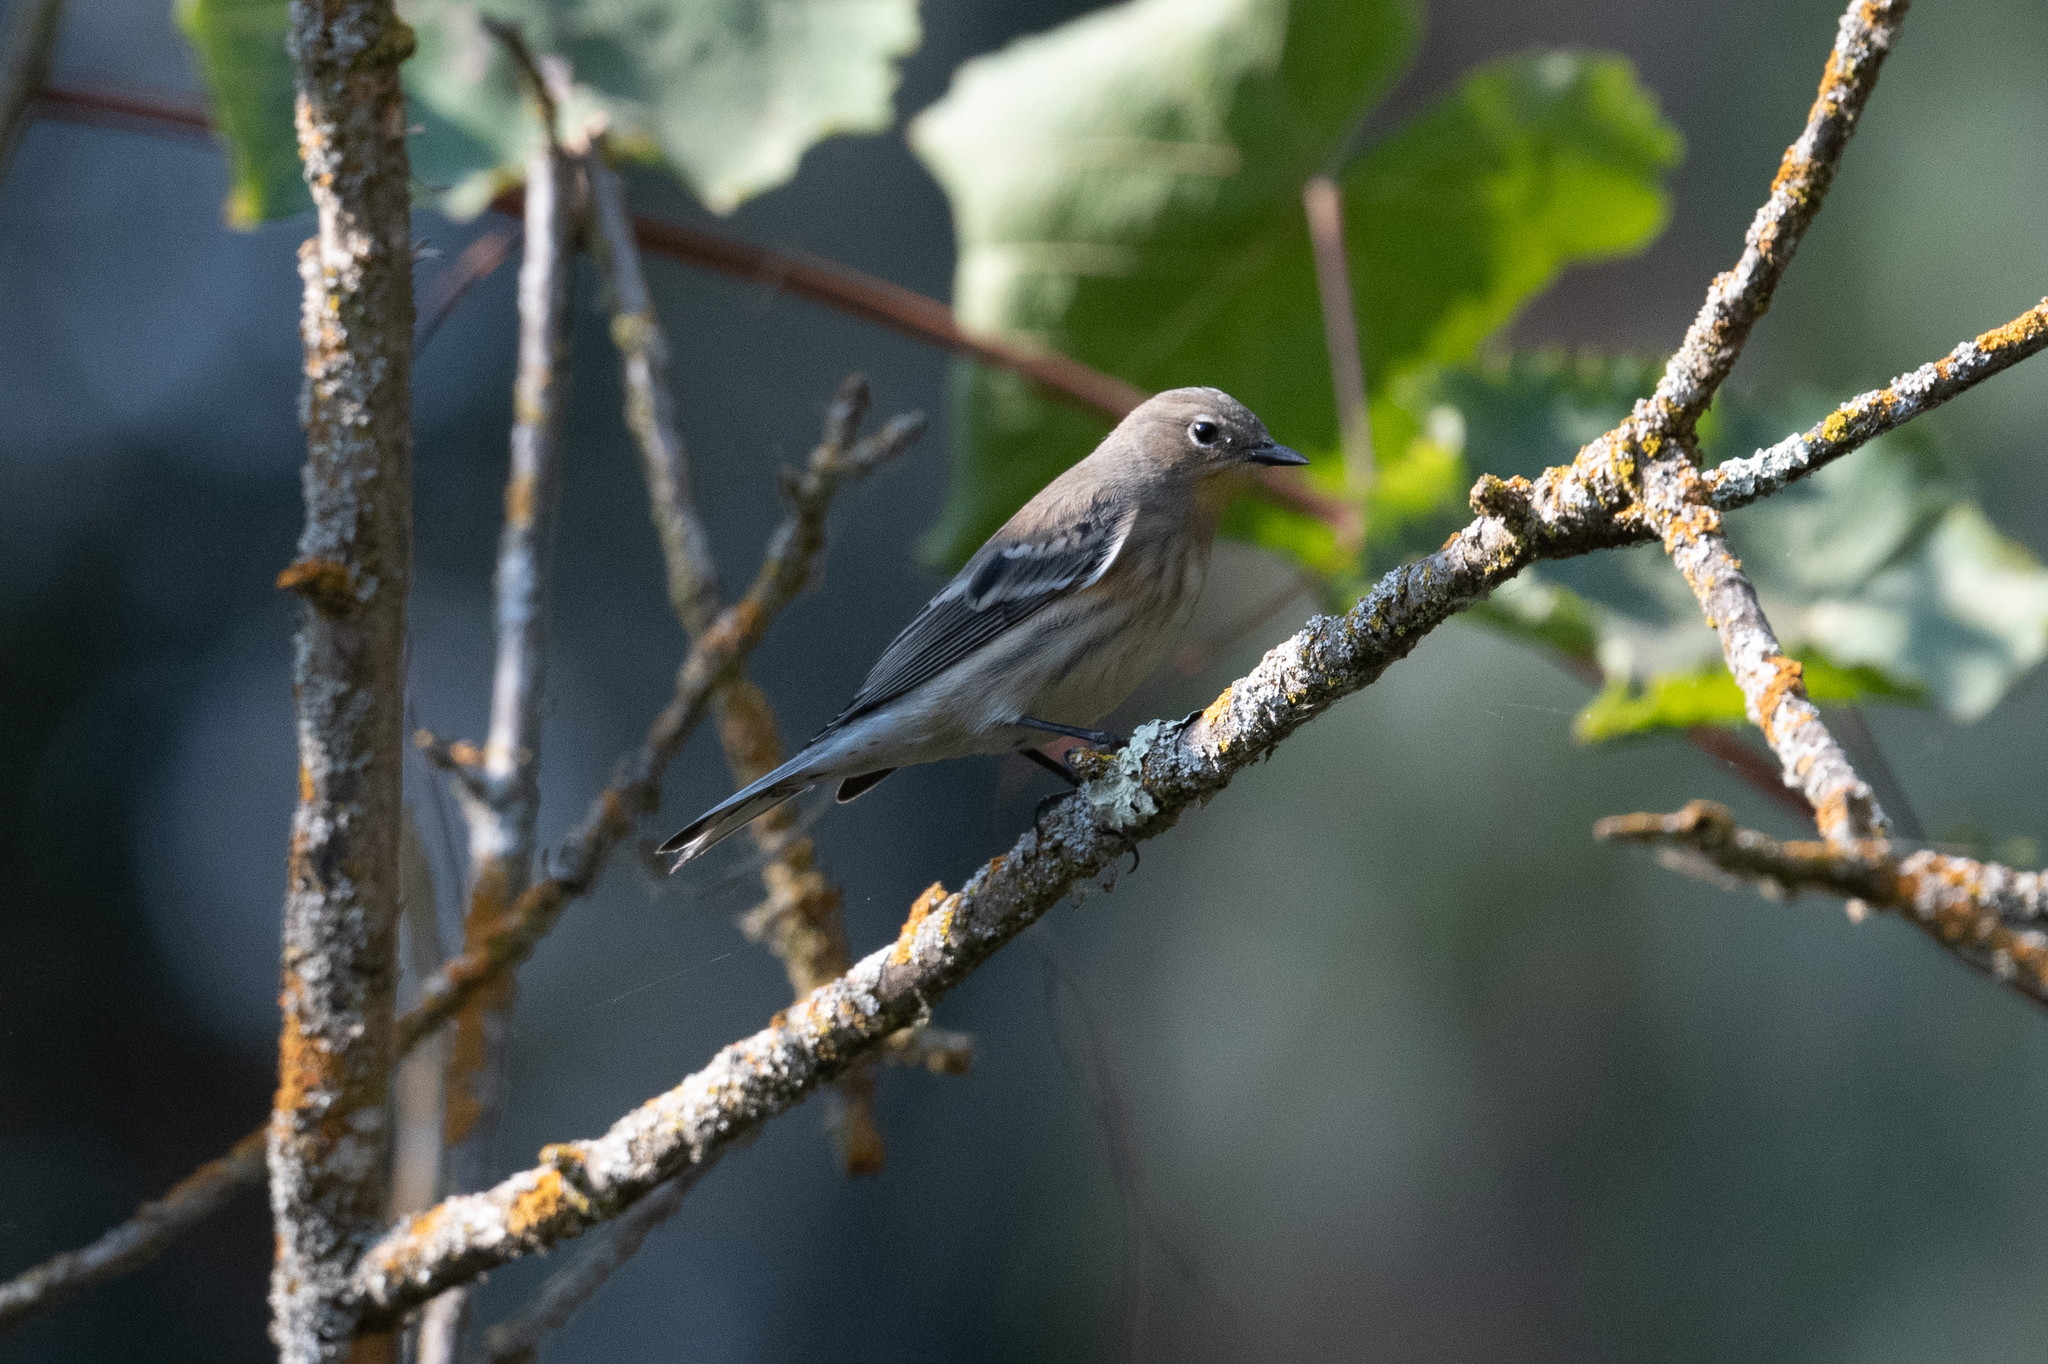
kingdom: Animalia
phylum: Chordata
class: Aves
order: Passeriformes
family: Parulidae
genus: Setophaga
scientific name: Setophaga coronata
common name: Myrtle warbler
